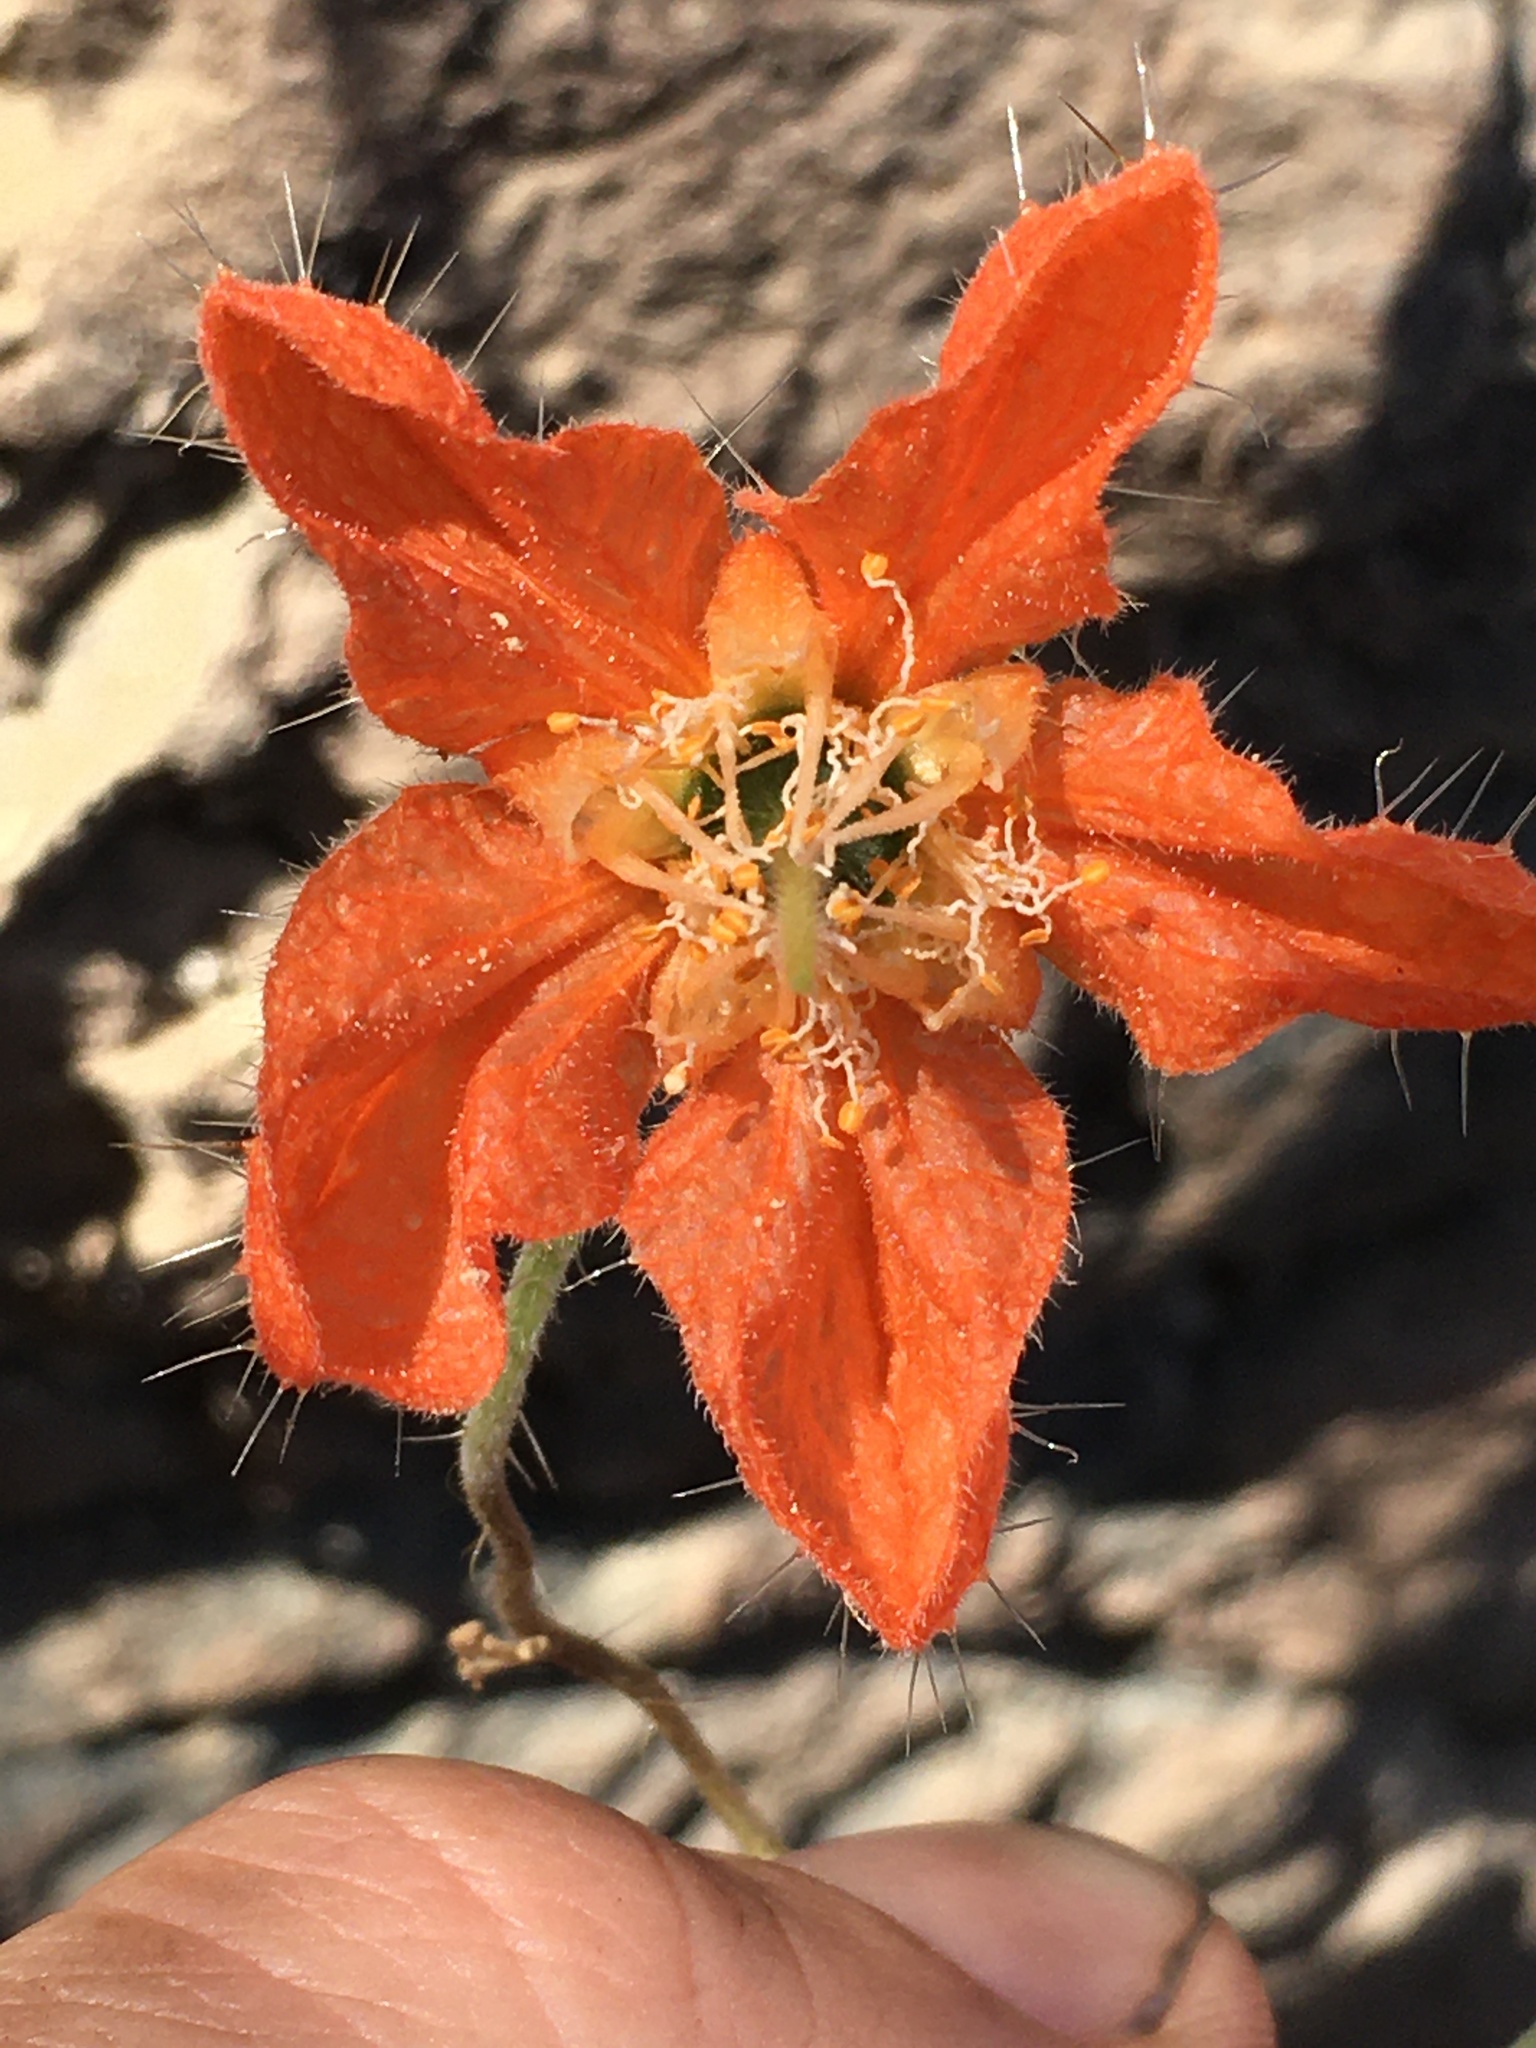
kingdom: Plantae
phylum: Tracheophyta
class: Magnoliopsida
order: Cornales
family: Loasaceae
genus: Caiophora
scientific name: Caiophora cirsiifolia
